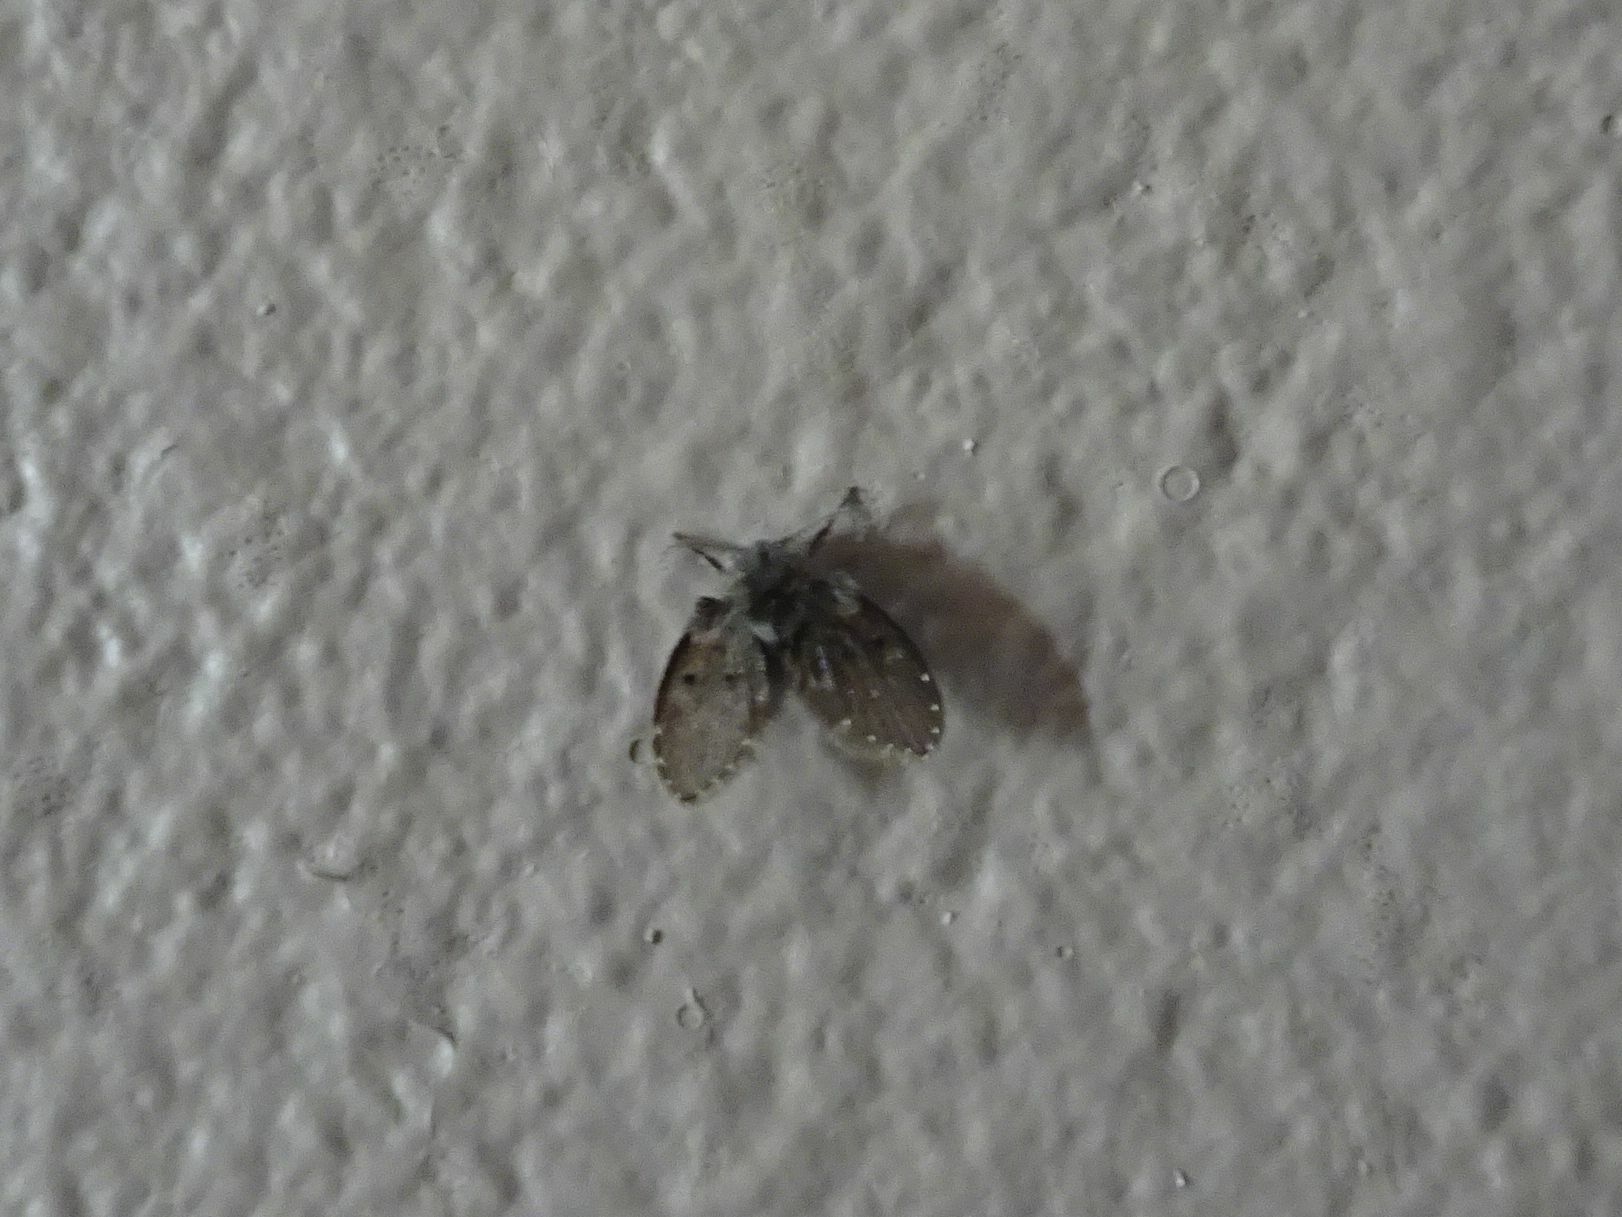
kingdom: Animalia
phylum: Arthropoda
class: Insecta
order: Diptera
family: Psychodidae
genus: Clogmia
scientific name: Clogmia albipunctatus
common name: White-spotted moth fly
